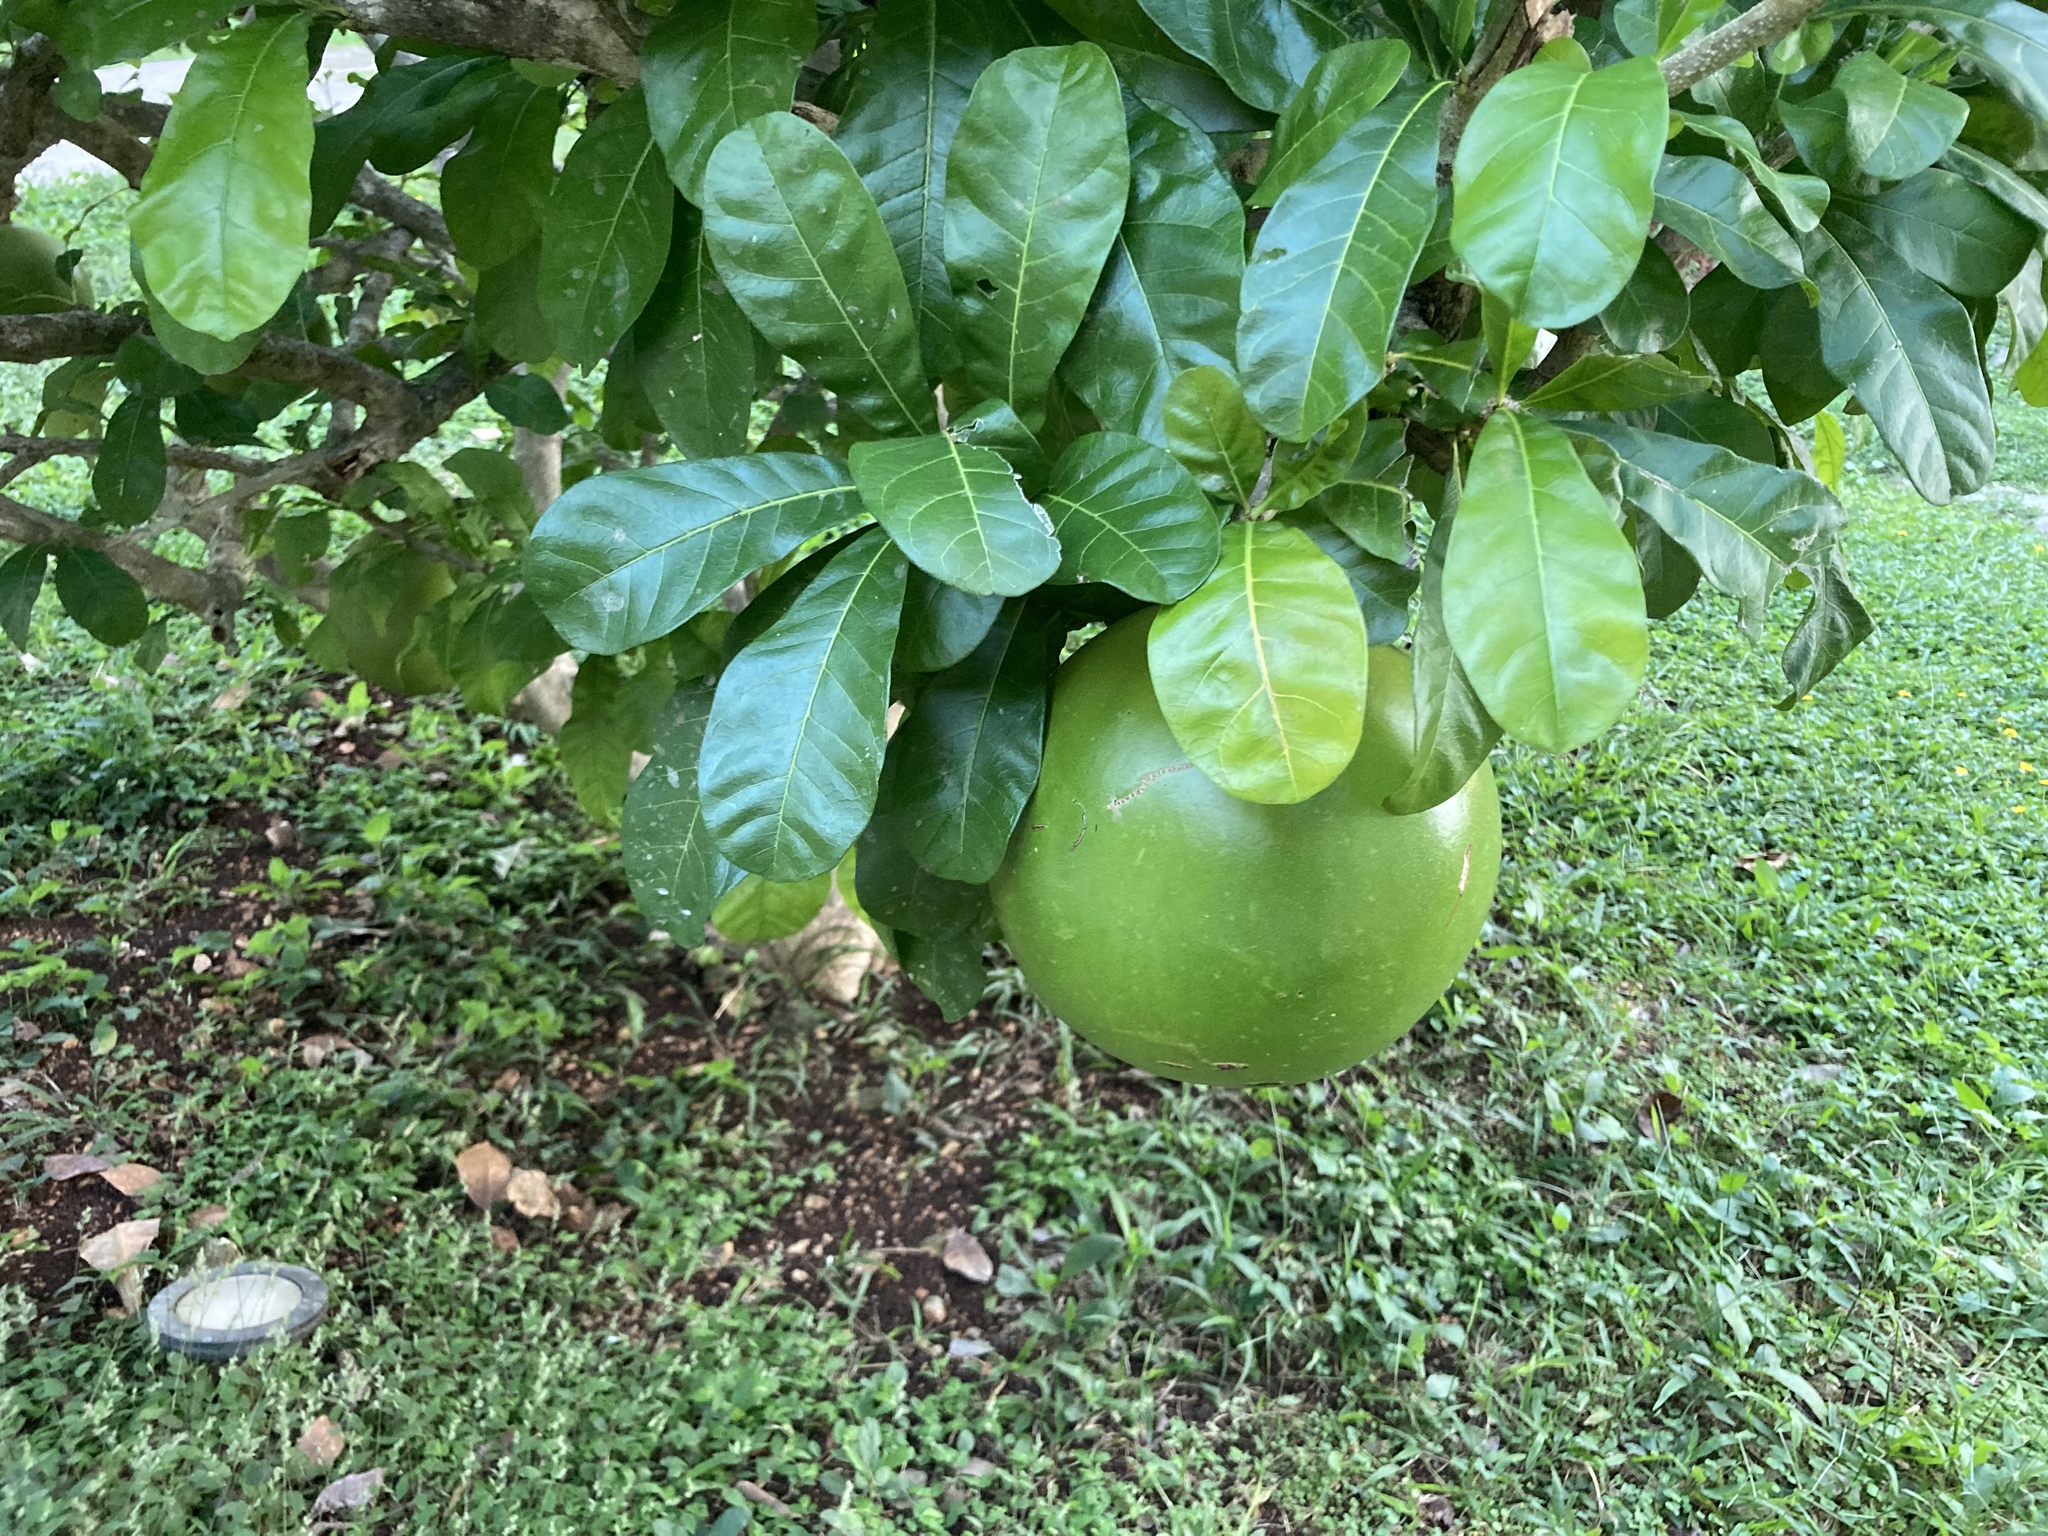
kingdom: Plantae
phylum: Tracheophyta
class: Magnoliopsida
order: Lamiales
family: Bignoniaceae
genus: Crescentia
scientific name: Crescentia cujete
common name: Calabash
